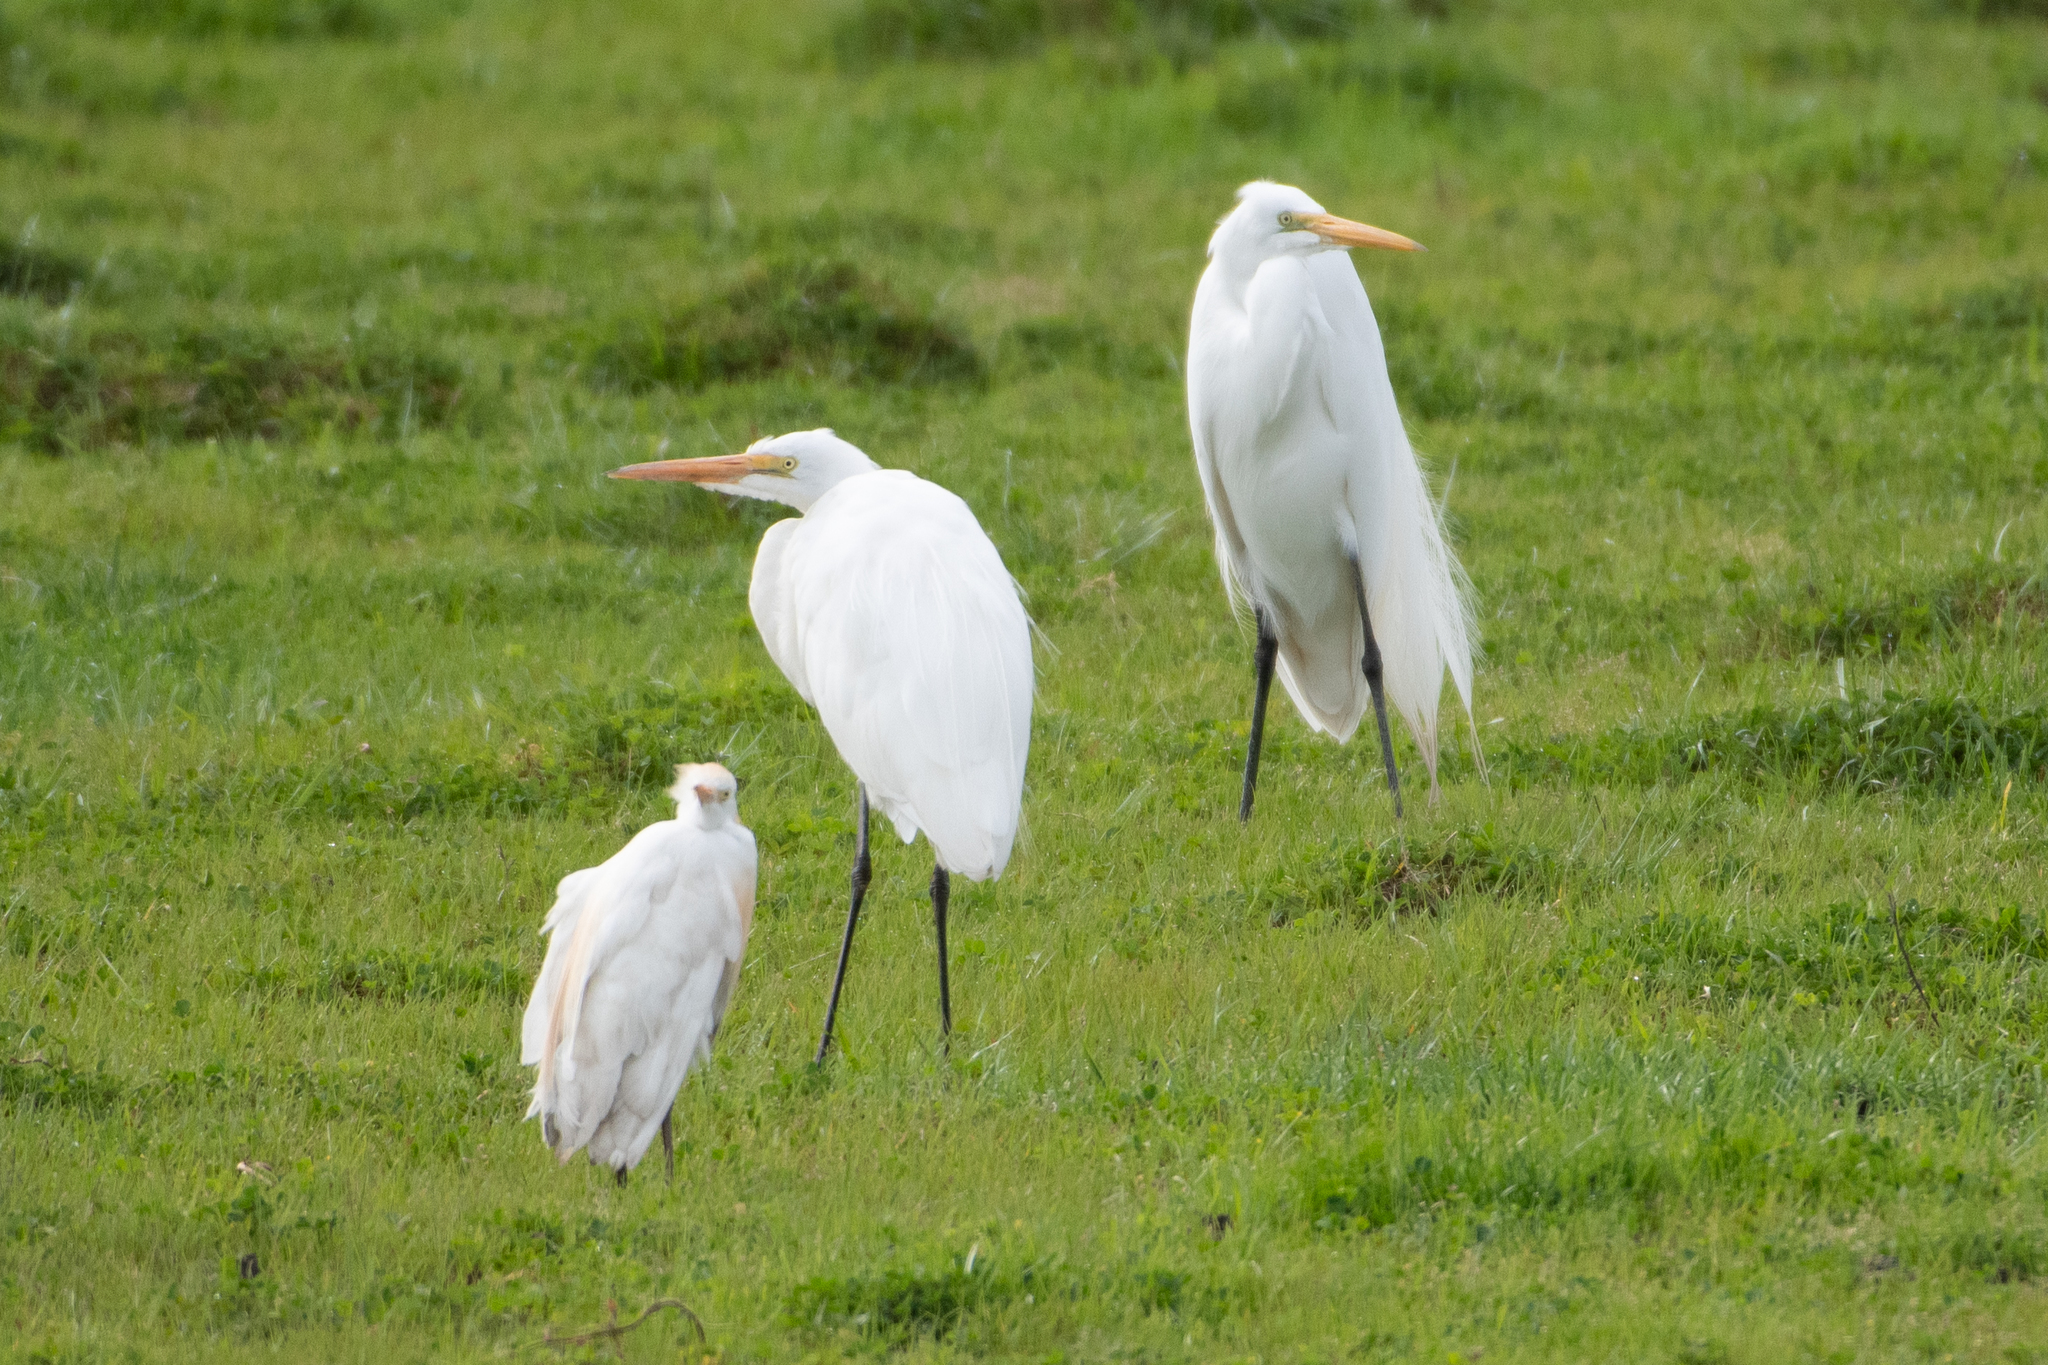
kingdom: Animalia
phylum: Chordata
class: Aves
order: Pelecaniformes
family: Ardeidae
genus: Ardea
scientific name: Ardea alba
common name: Great egret
